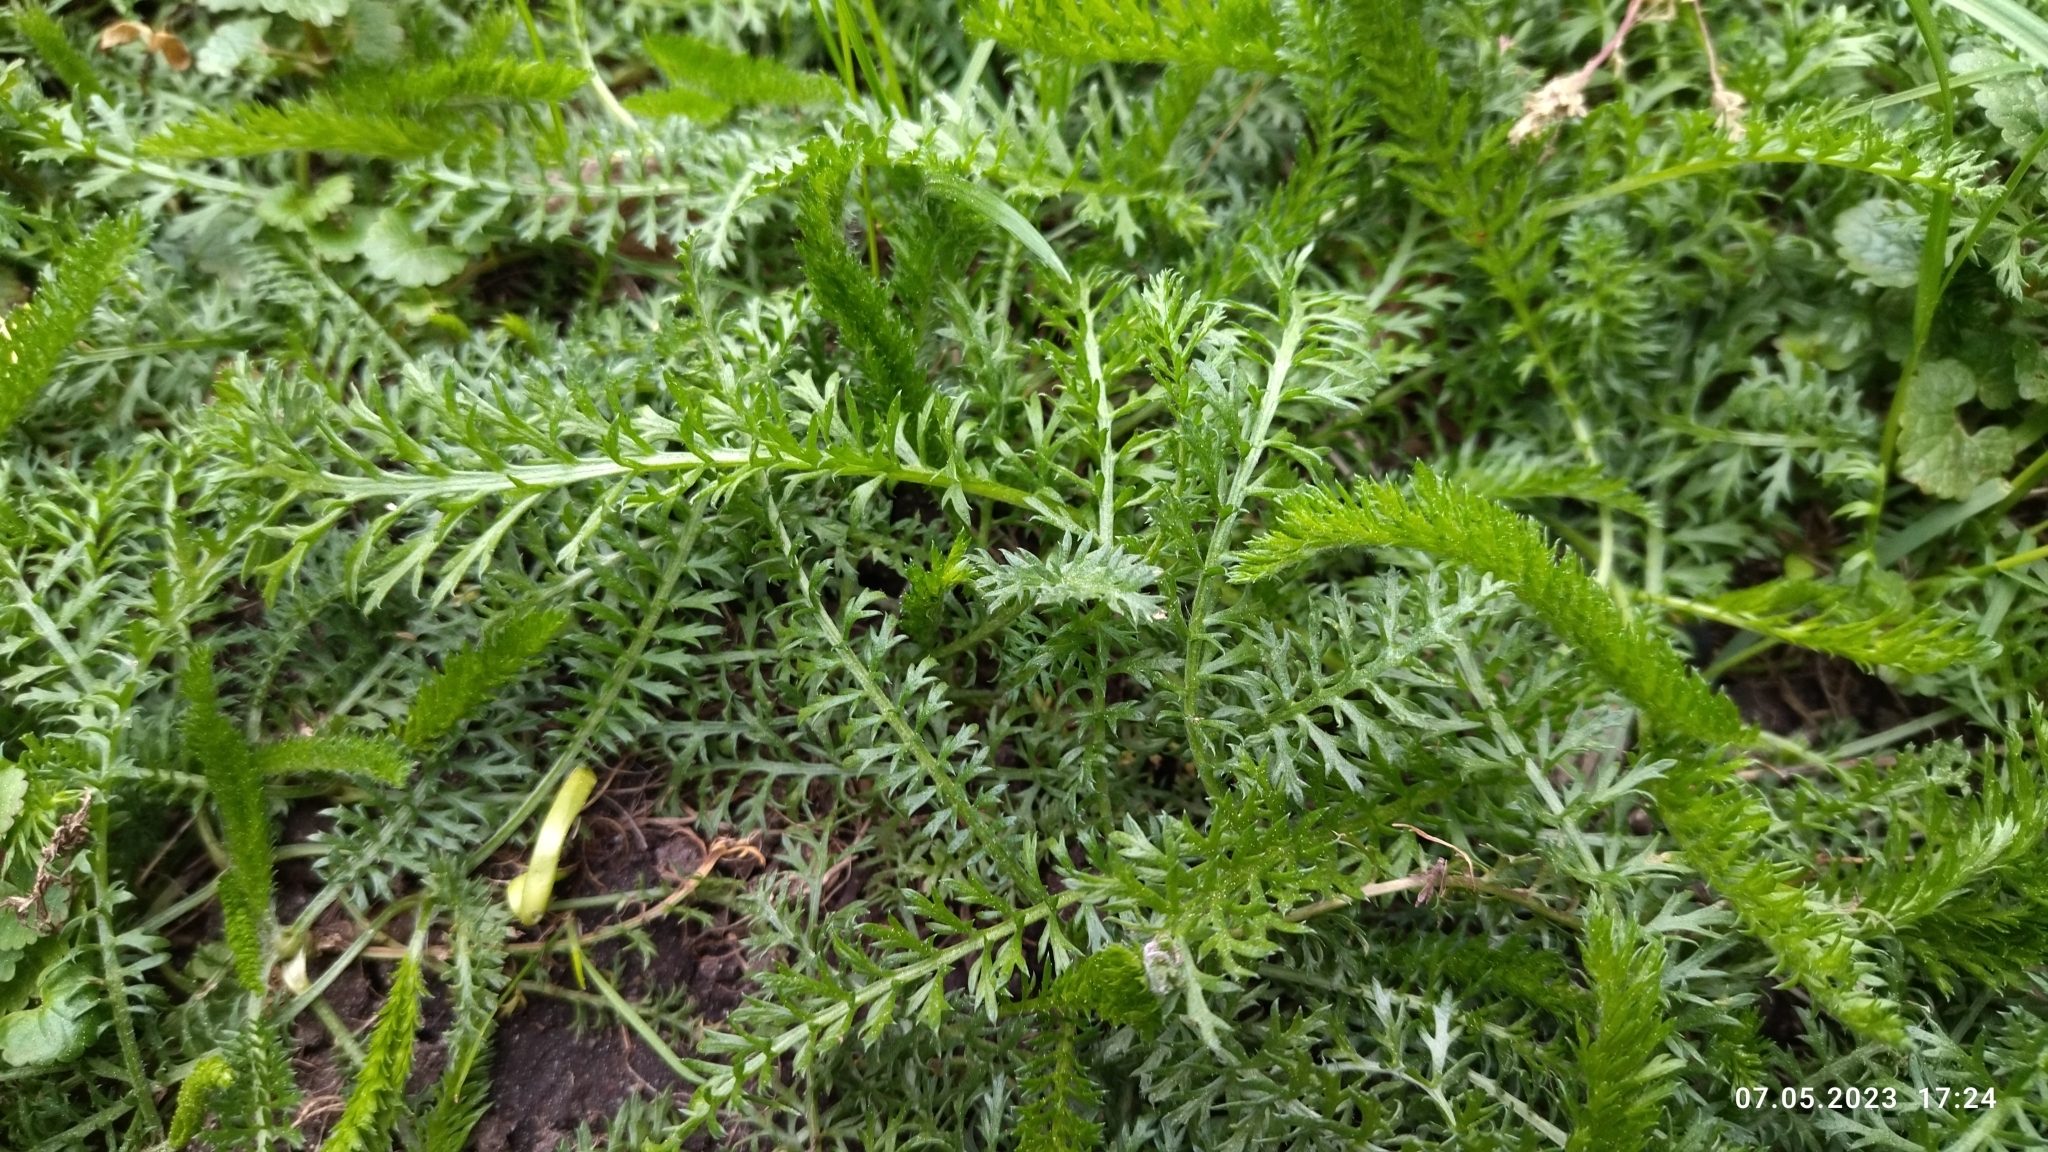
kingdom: Plantae
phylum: Tracheophyta
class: Magnoliopsida
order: Asterales
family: Asteraceae
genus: Achillea
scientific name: Achillea millefolium
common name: Yarrow
